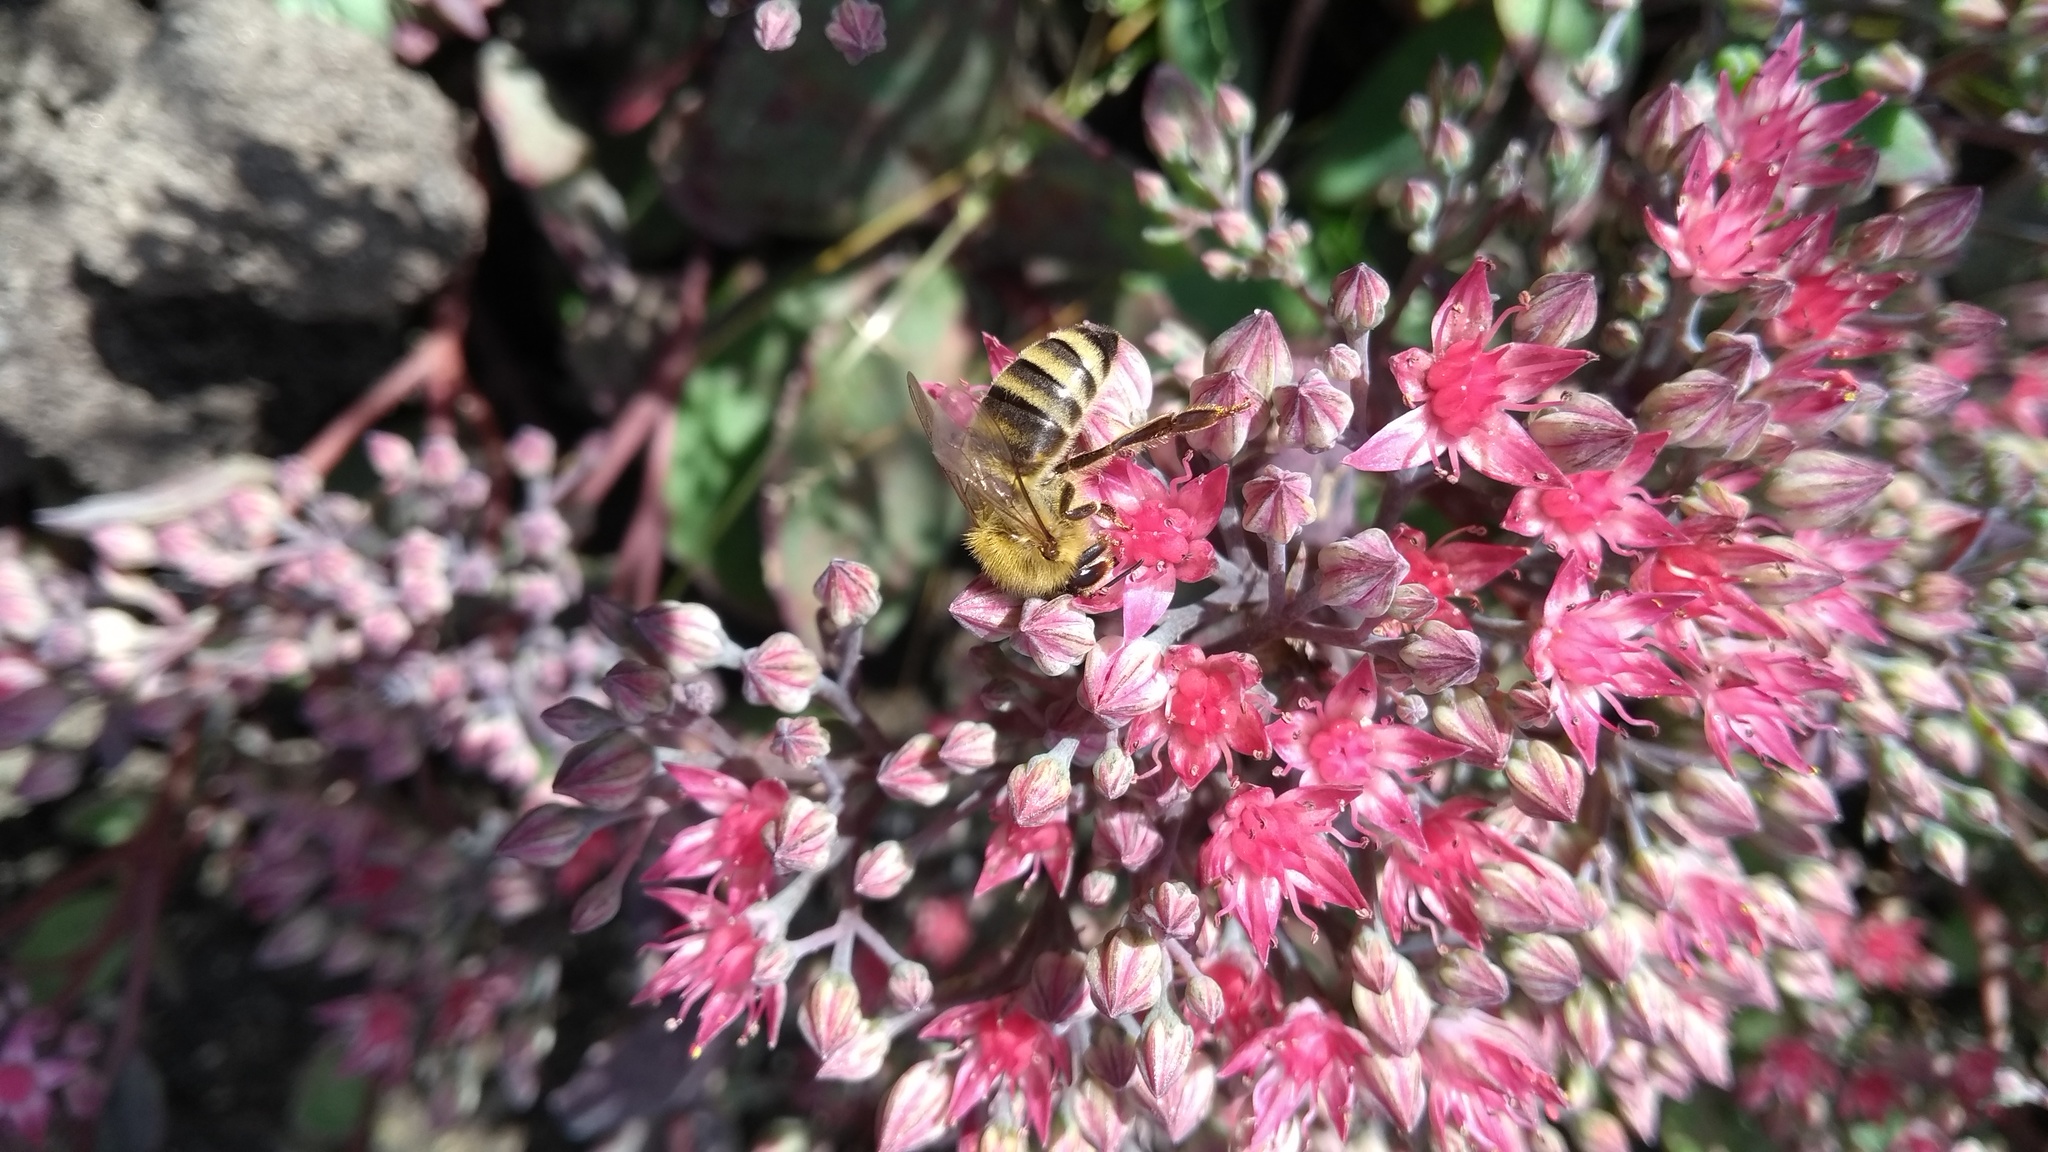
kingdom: Animalia
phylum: Arthropoda
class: Insecta
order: Hymenoptera
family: Apidae
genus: Apis
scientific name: Apis mellifera
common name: Honey bee
